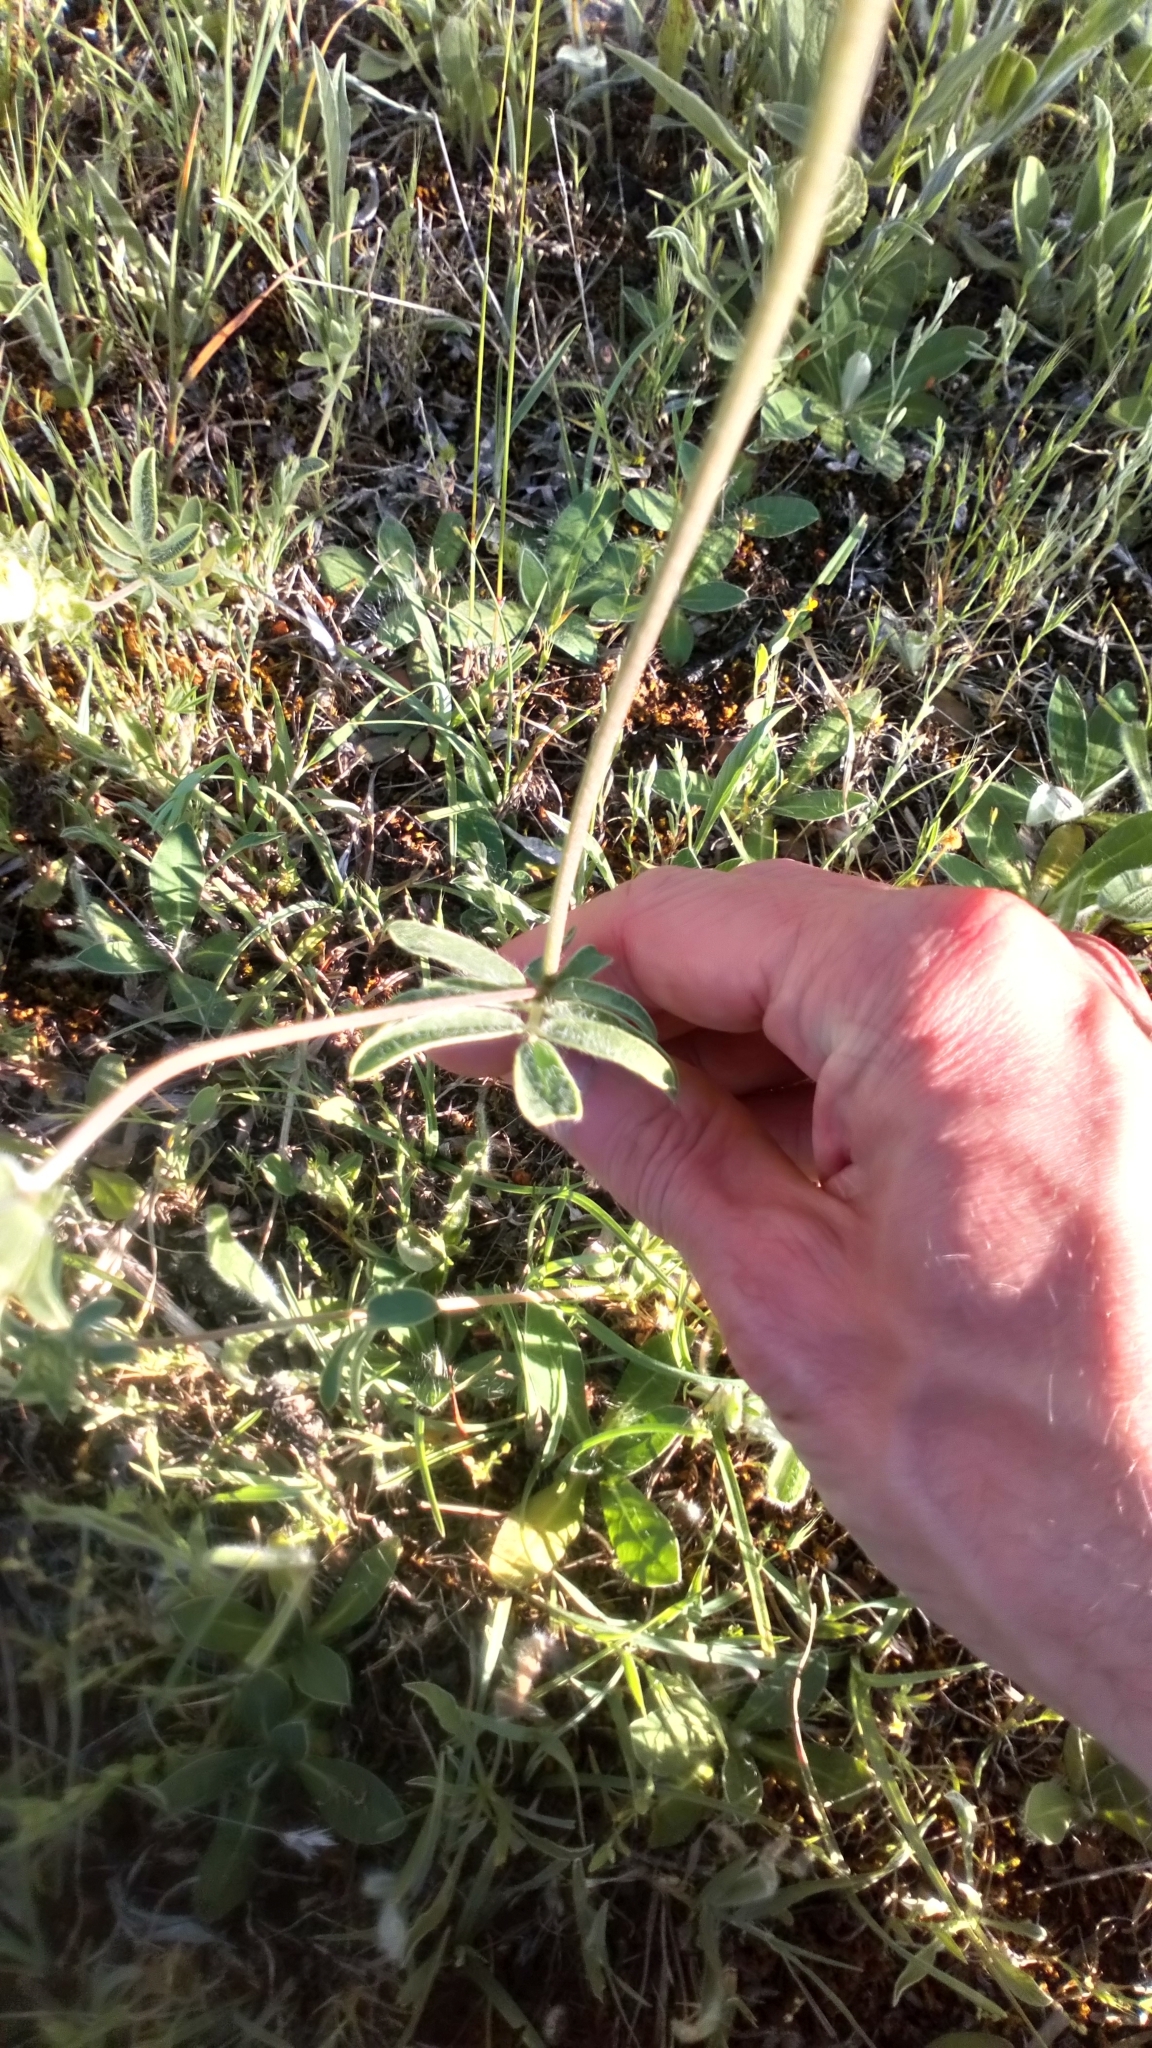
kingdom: Plantae
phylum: Tracheophyta
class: Magnoliopsida
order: Fabales
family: Fabaceae
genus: Anthyllis
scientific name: Anthyllis vulneraria
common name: Kidney vetch
